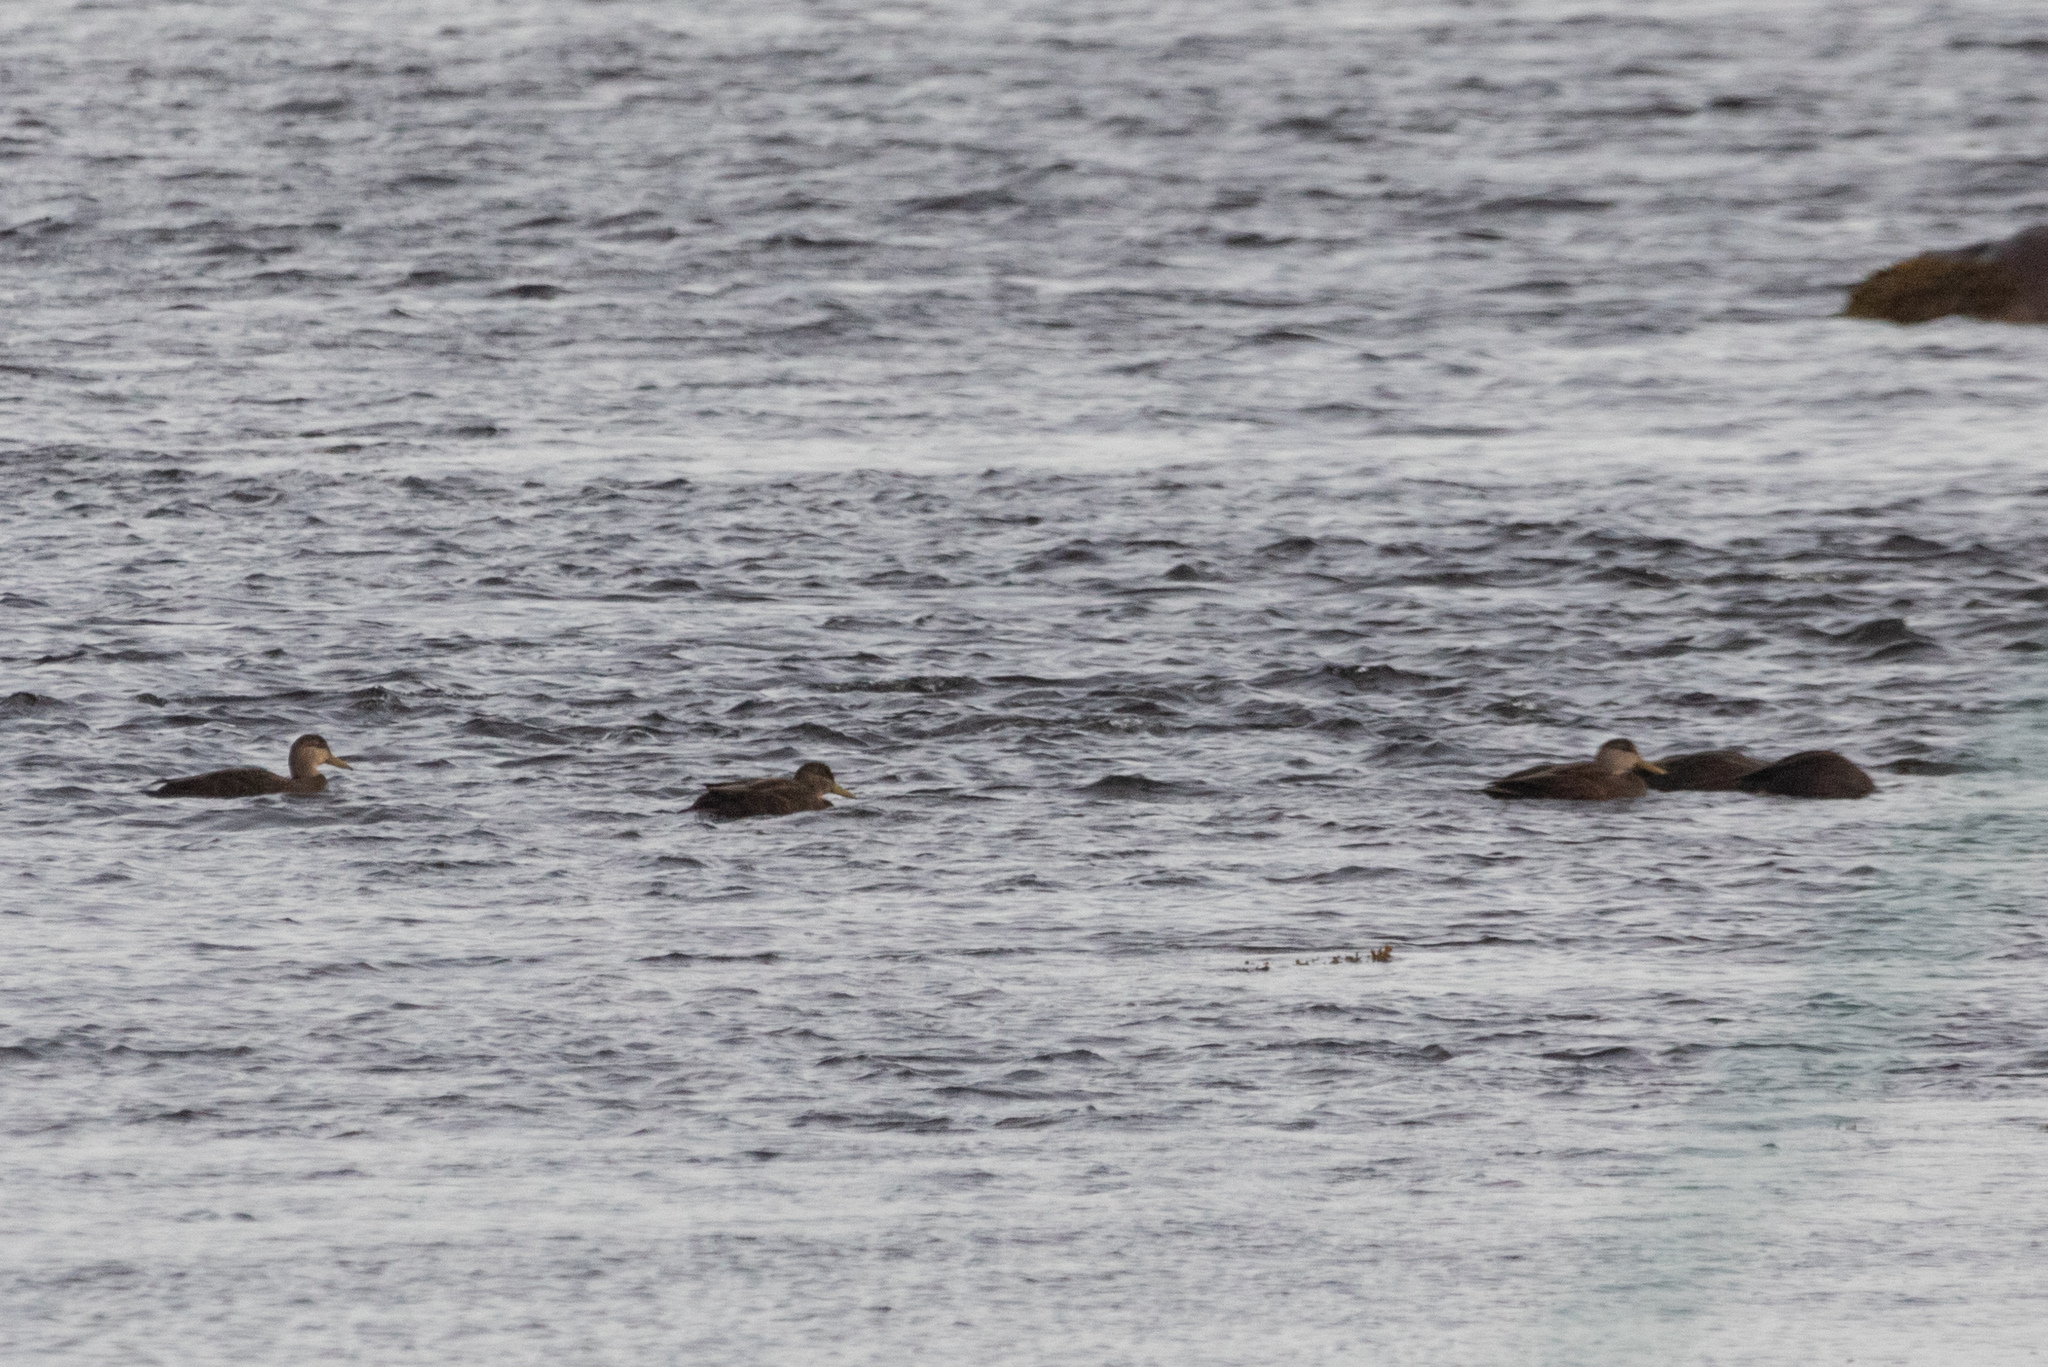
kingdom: Animalia
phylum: Chordata
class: Aves
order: Anseriformes
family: Anatidae
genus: Anas
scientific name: Anas rubripes
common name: American black duck
